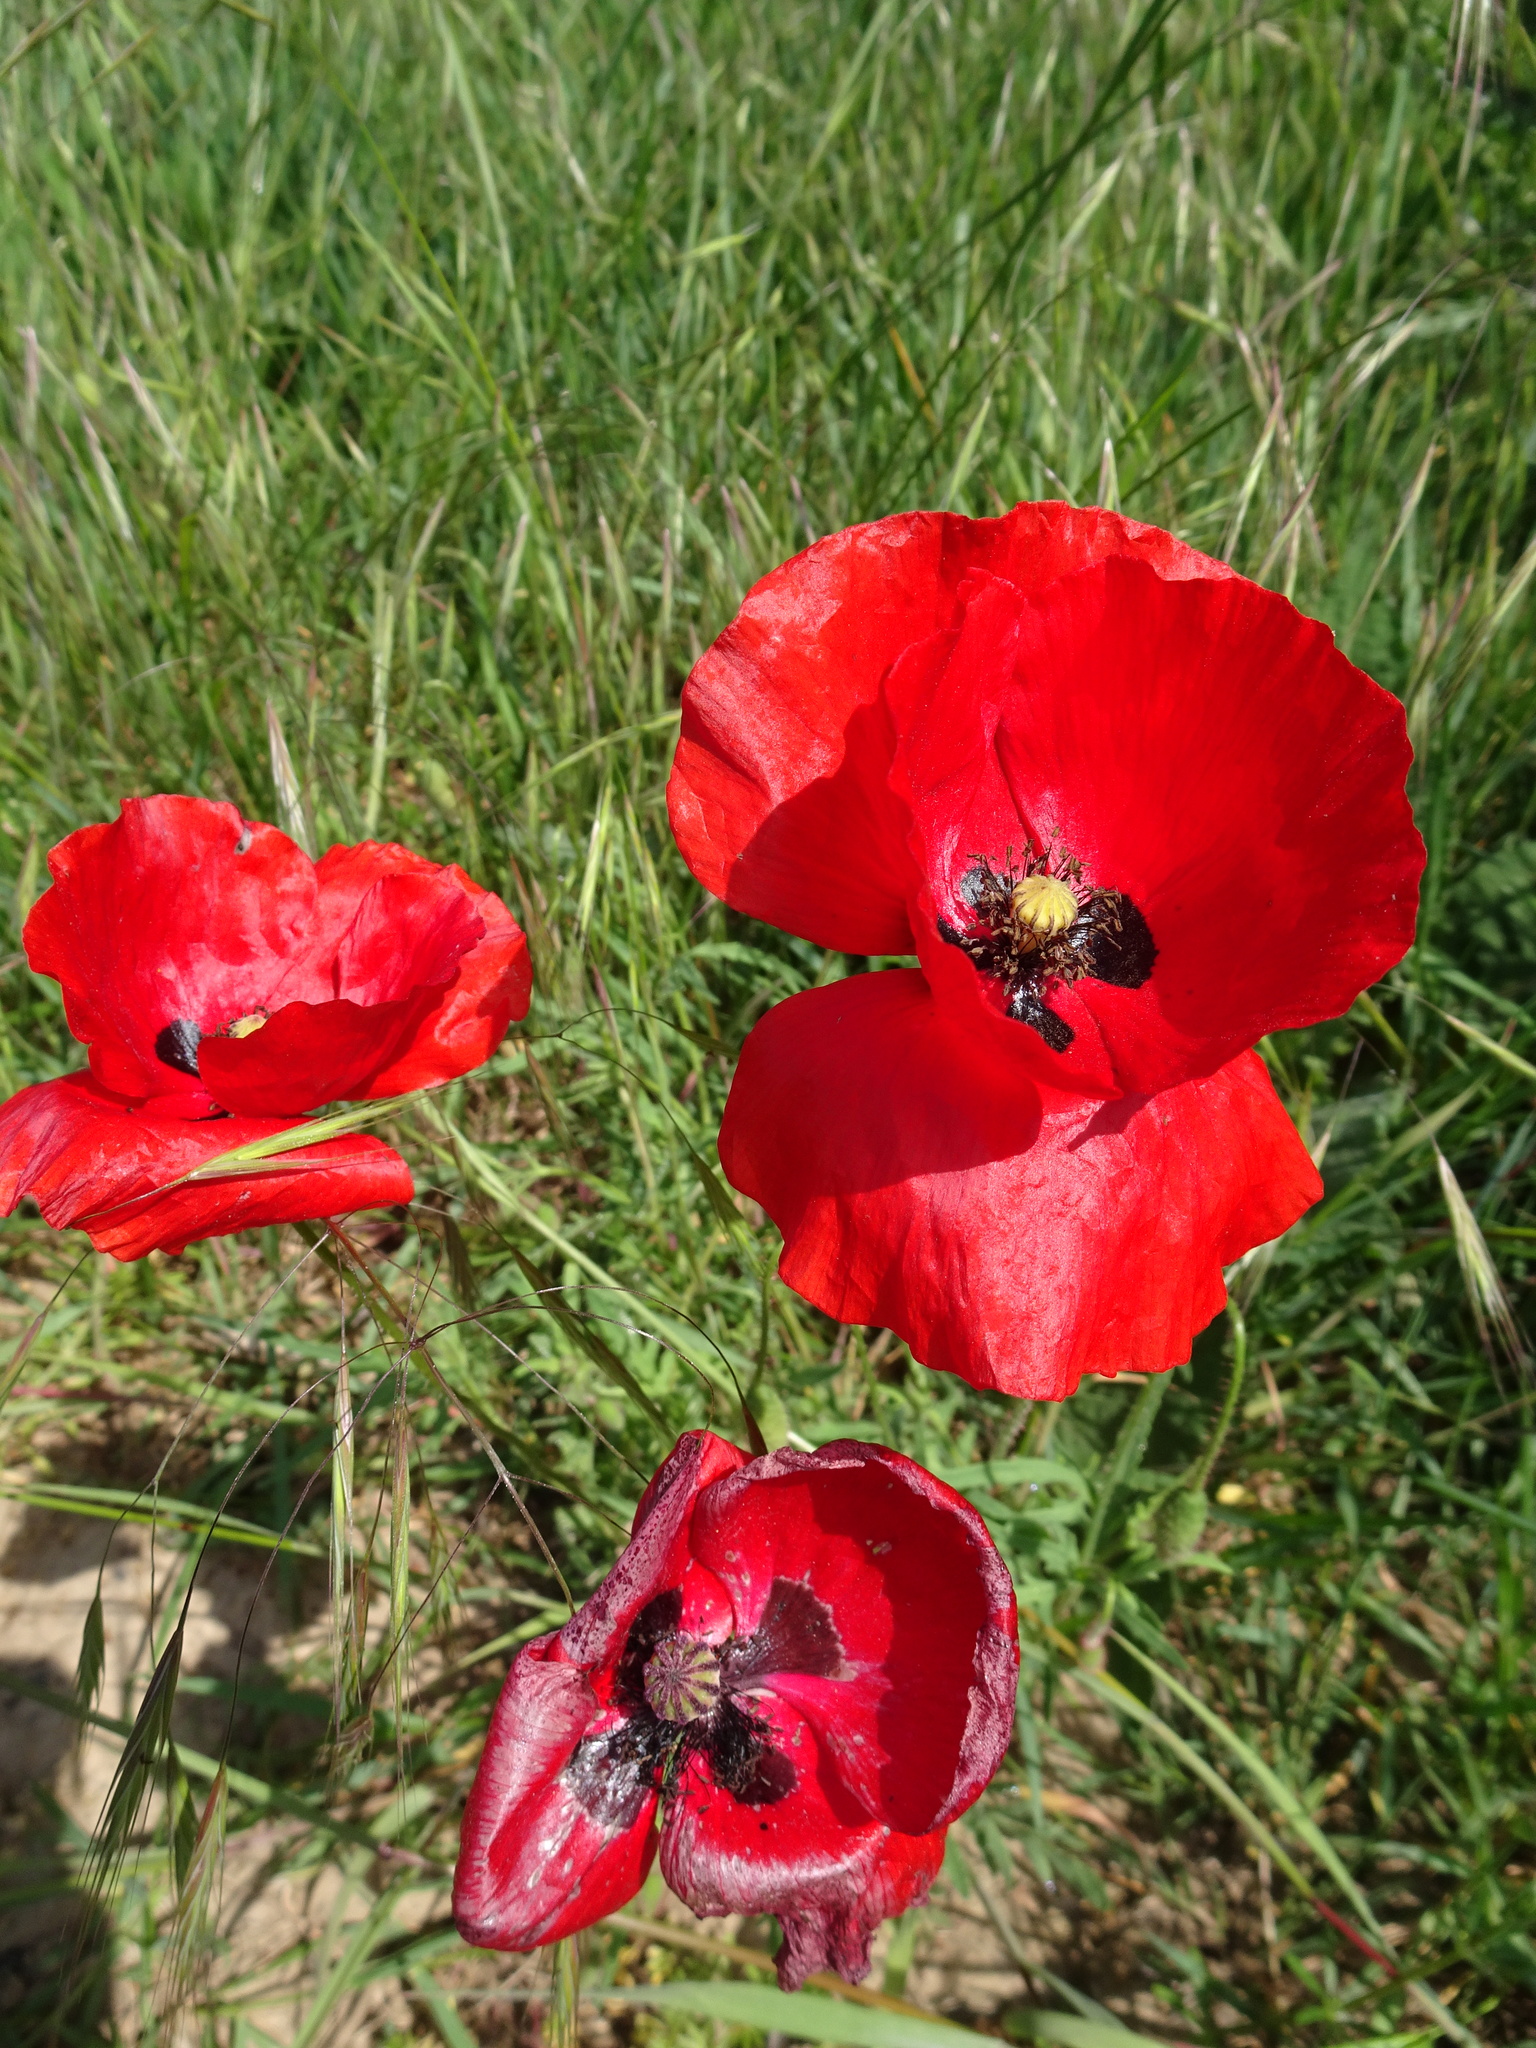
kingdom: Plantae
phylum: Tracheophyta
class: Magnoliopsida
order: Ranunculales
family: Papaveraceae
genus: Papaver
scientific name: Papaver rhoeas
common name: Corn poppy
